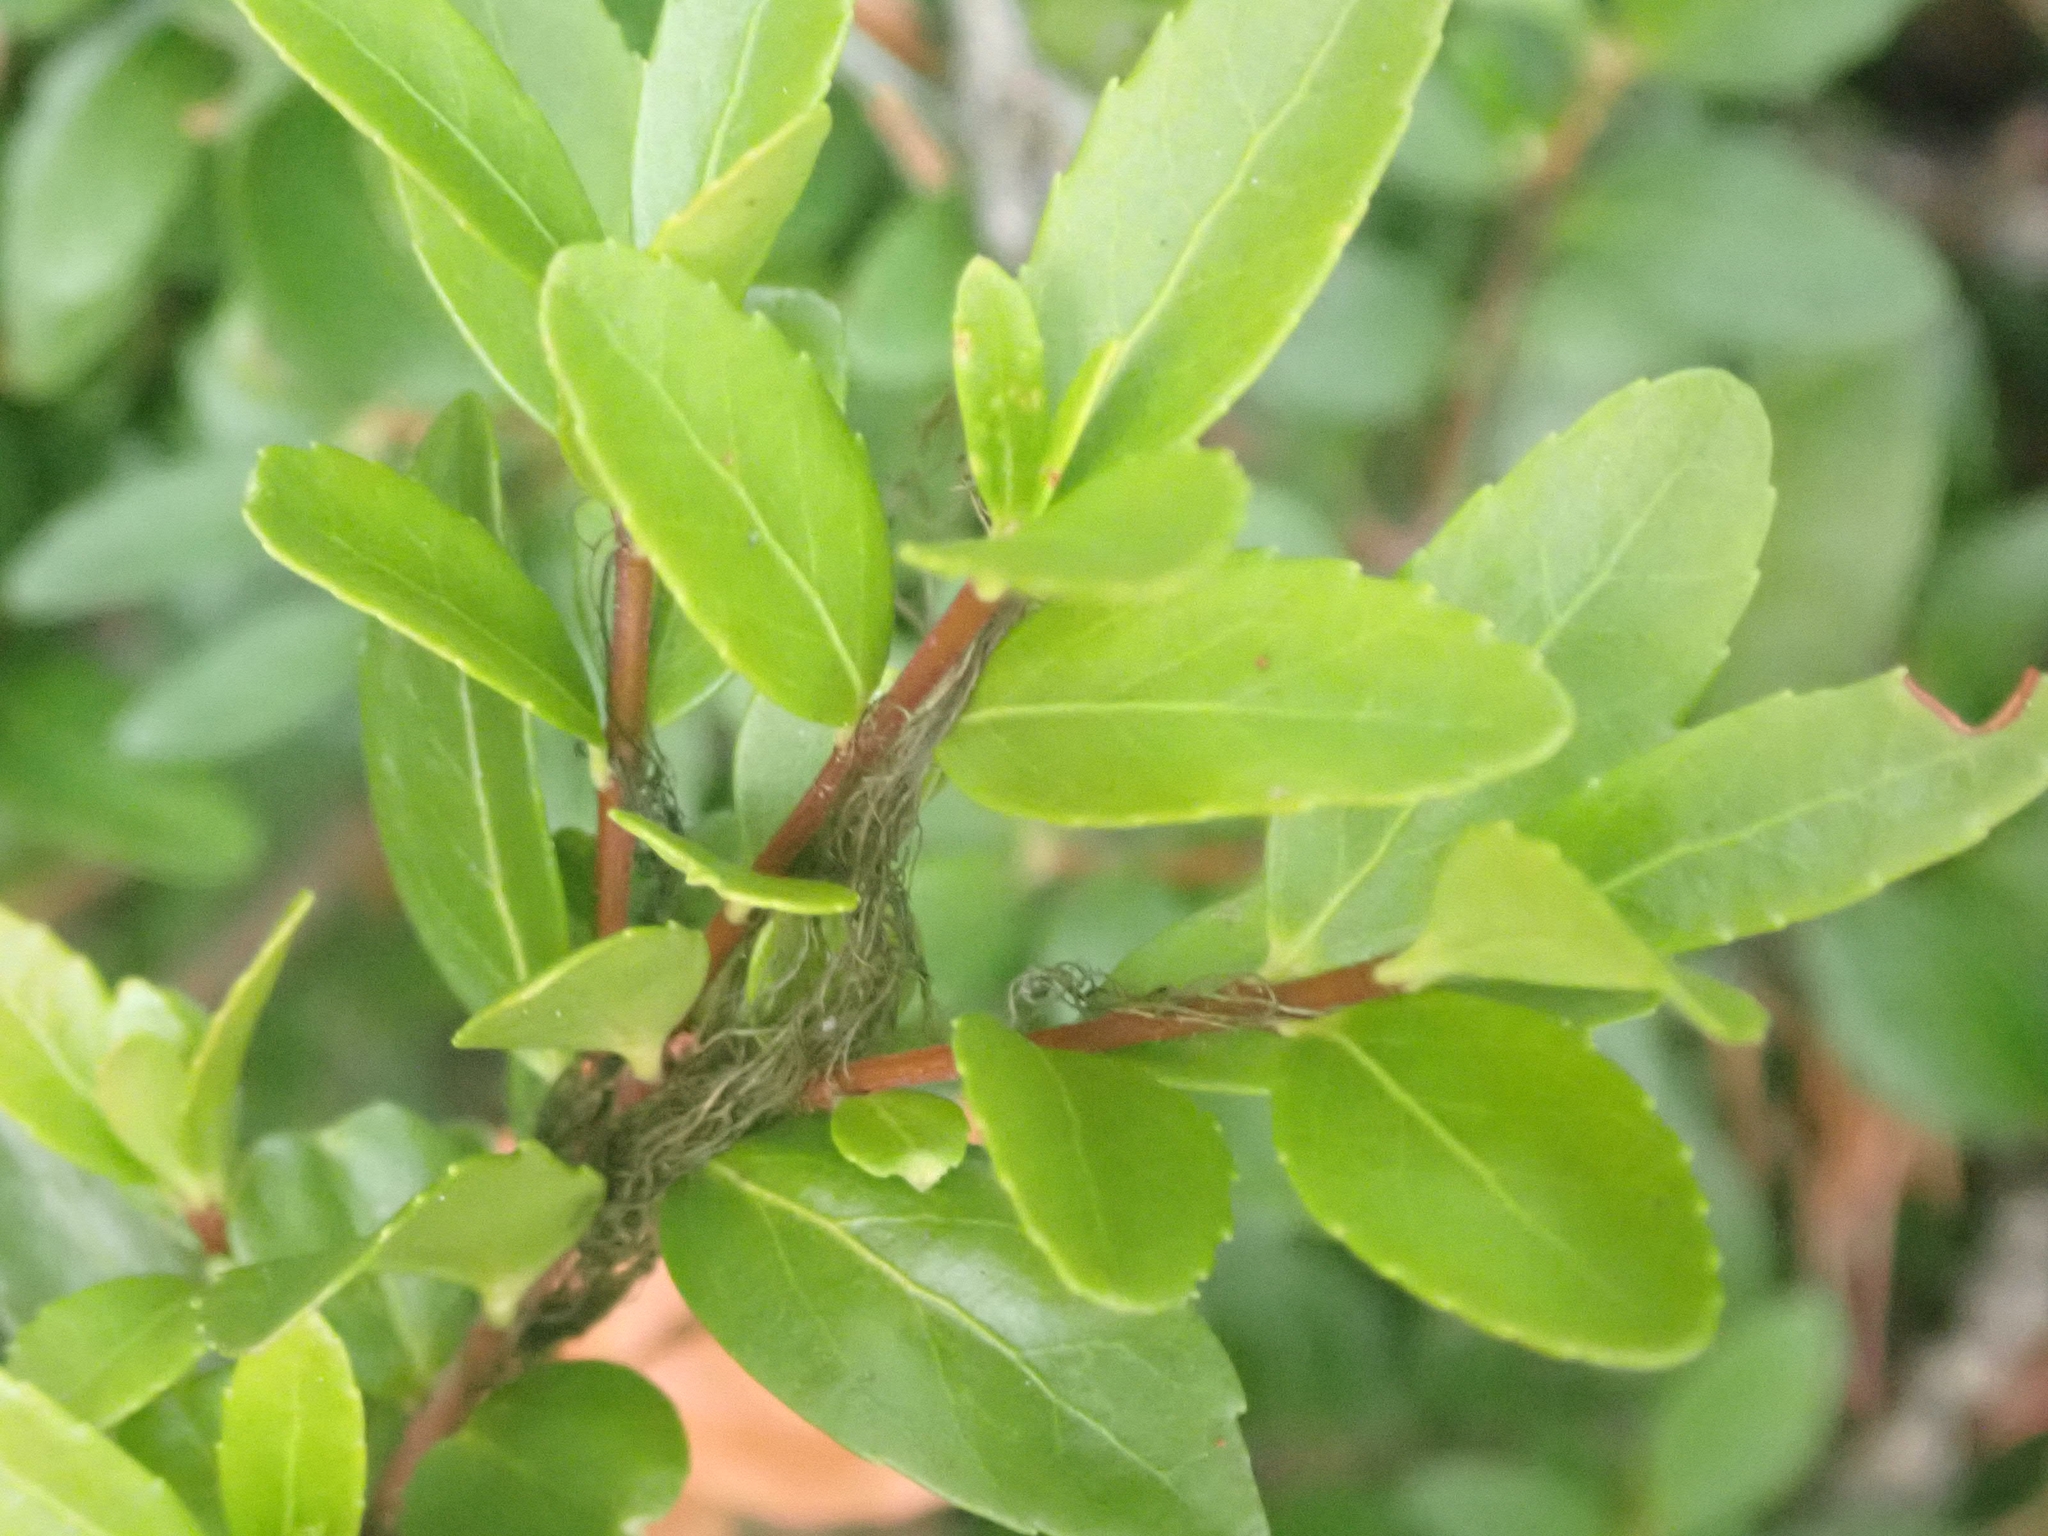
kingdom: Plantae
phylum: Tracheophyta
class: Magnoliopsida
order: Celastrales
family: Celastraceae
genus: Paxistima
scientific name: Paxistima myrsinites
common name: Mountain-lover
